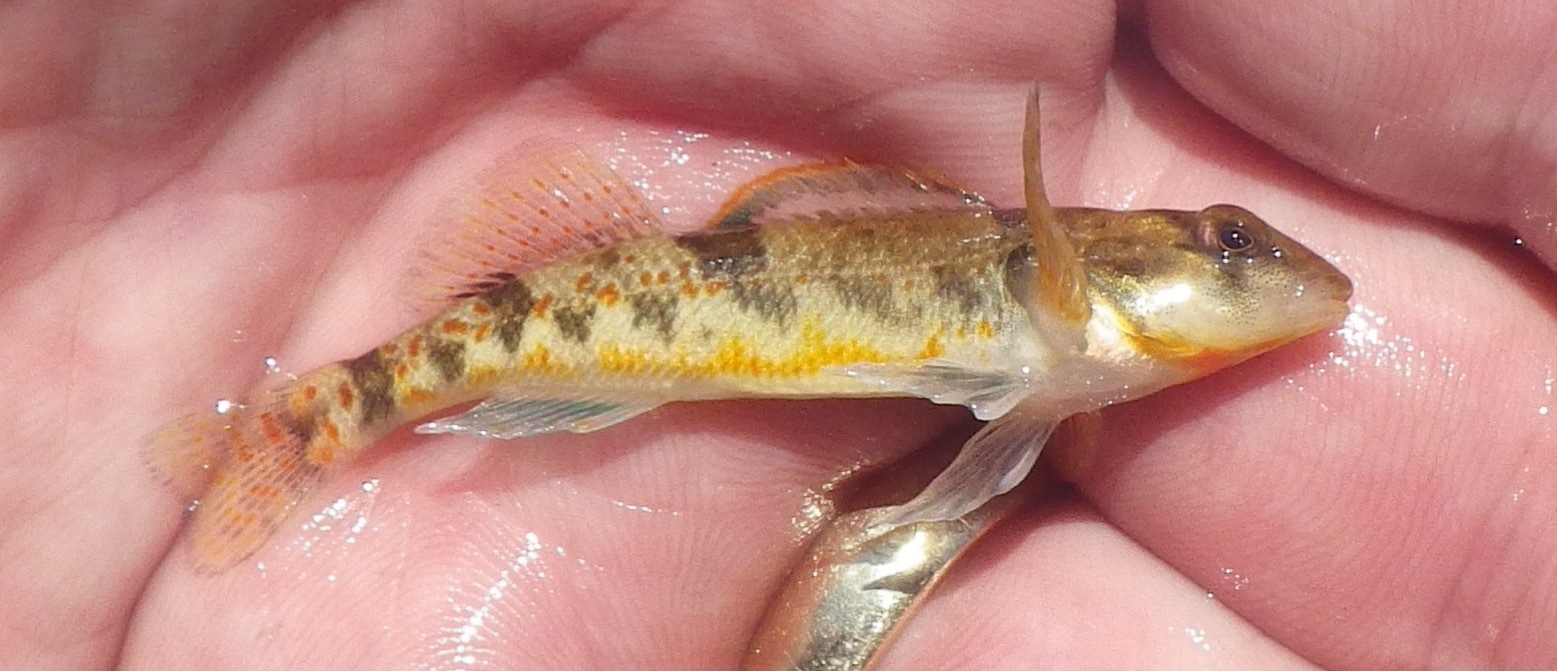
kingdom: Animalia
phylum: Chordata
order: Perciformes
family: Percidae
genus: Etheostoma
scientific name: Etheostoma erythrozonum
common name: Meramec saddled darter
